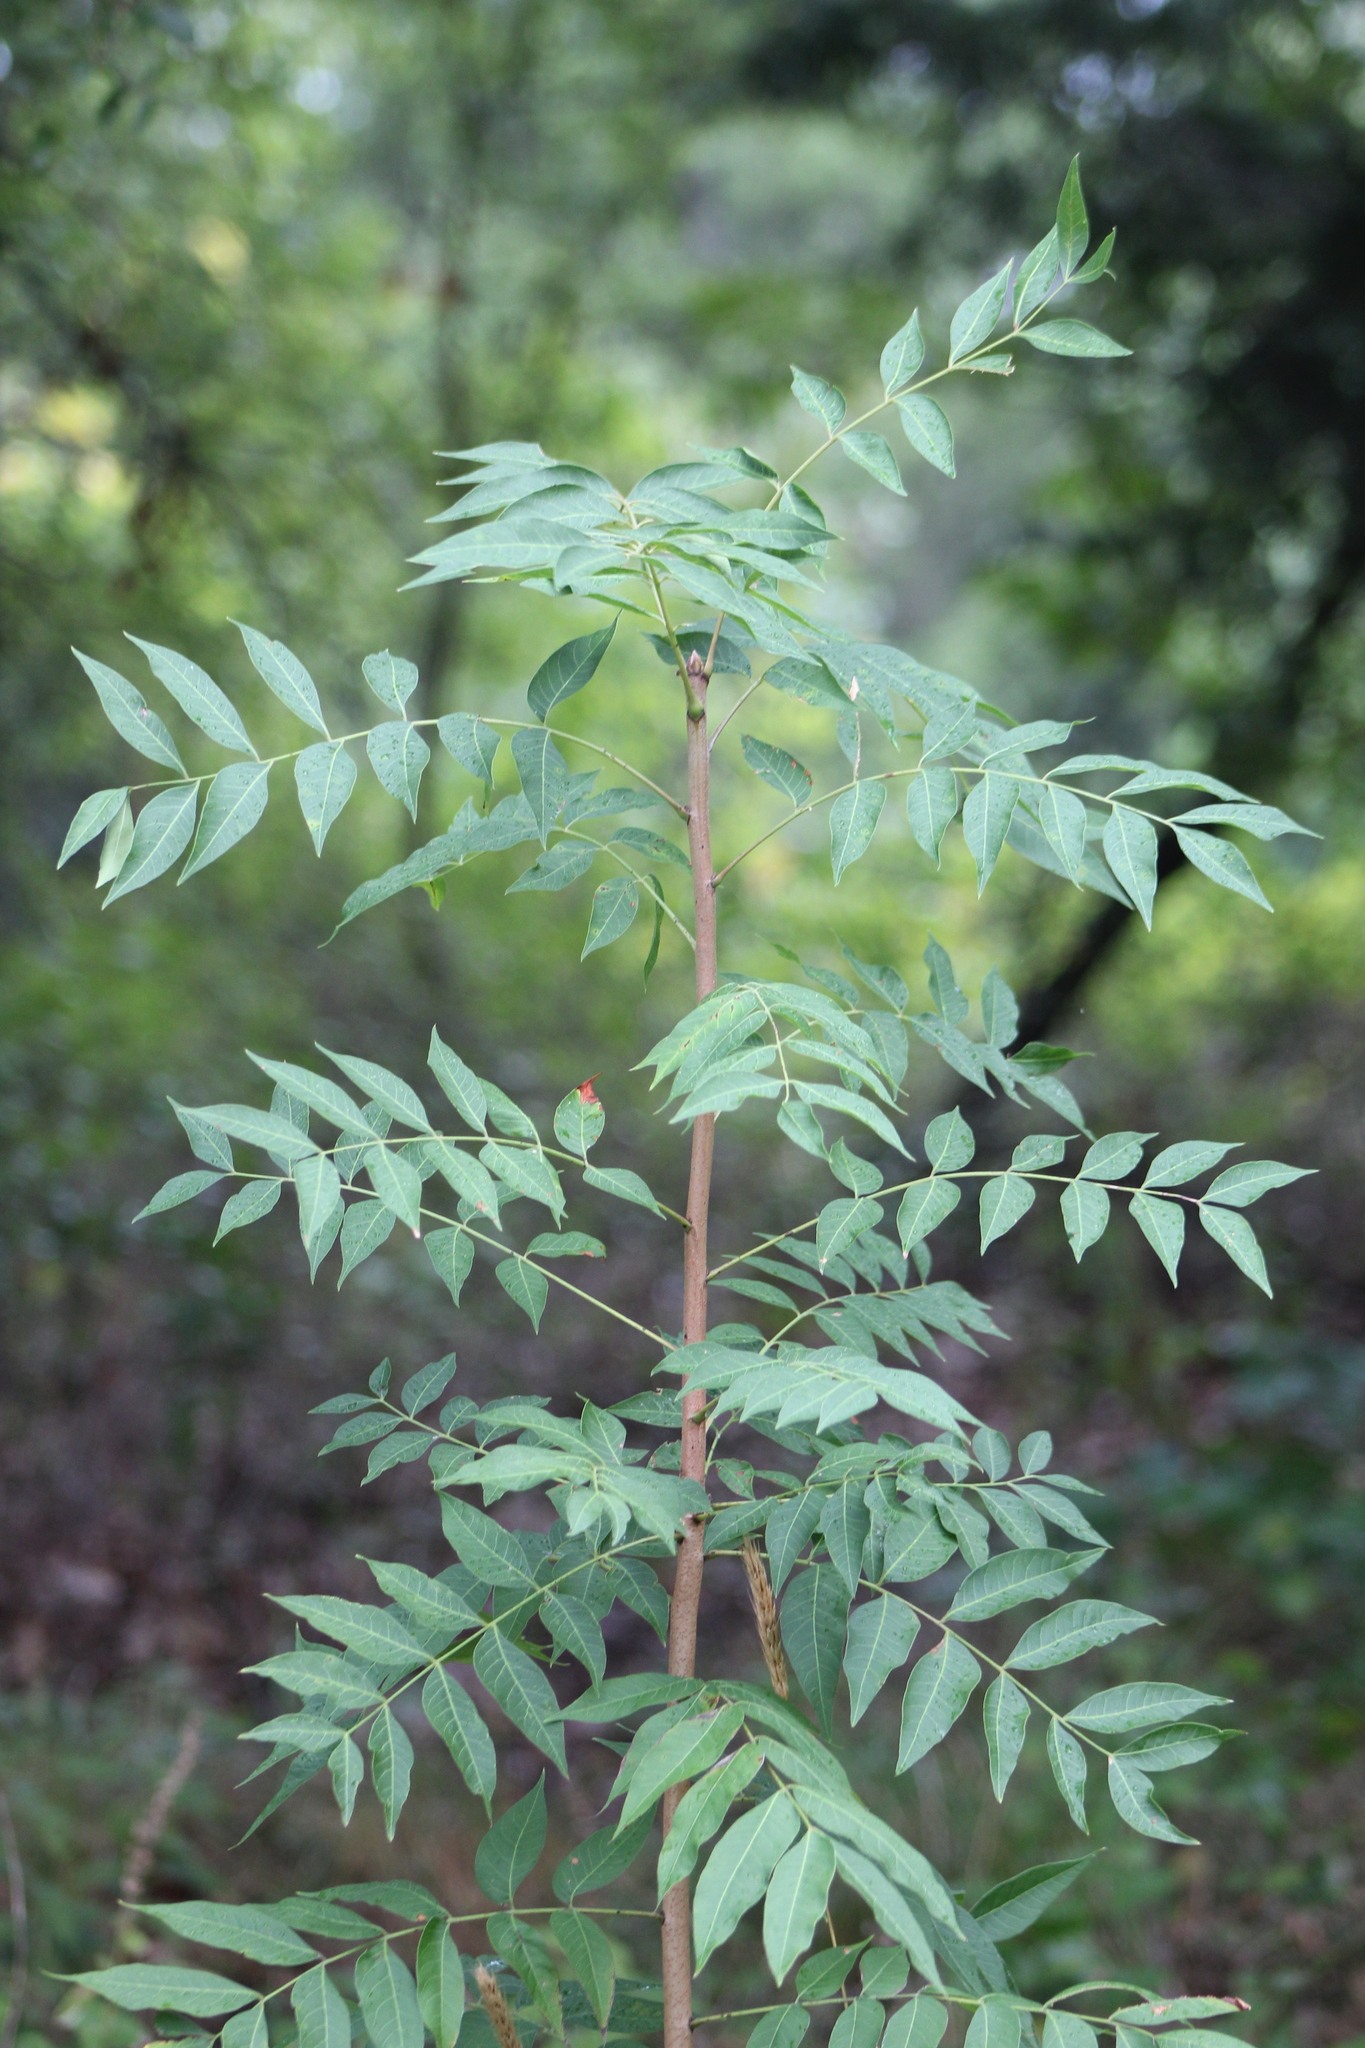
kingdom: Plantae
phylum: Tracheophyta
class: Magnoliopsida
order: Sapindales
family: Anacardiaceae
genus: Pistacia
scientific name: Pistacia chinensis
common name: Chinese pistache
